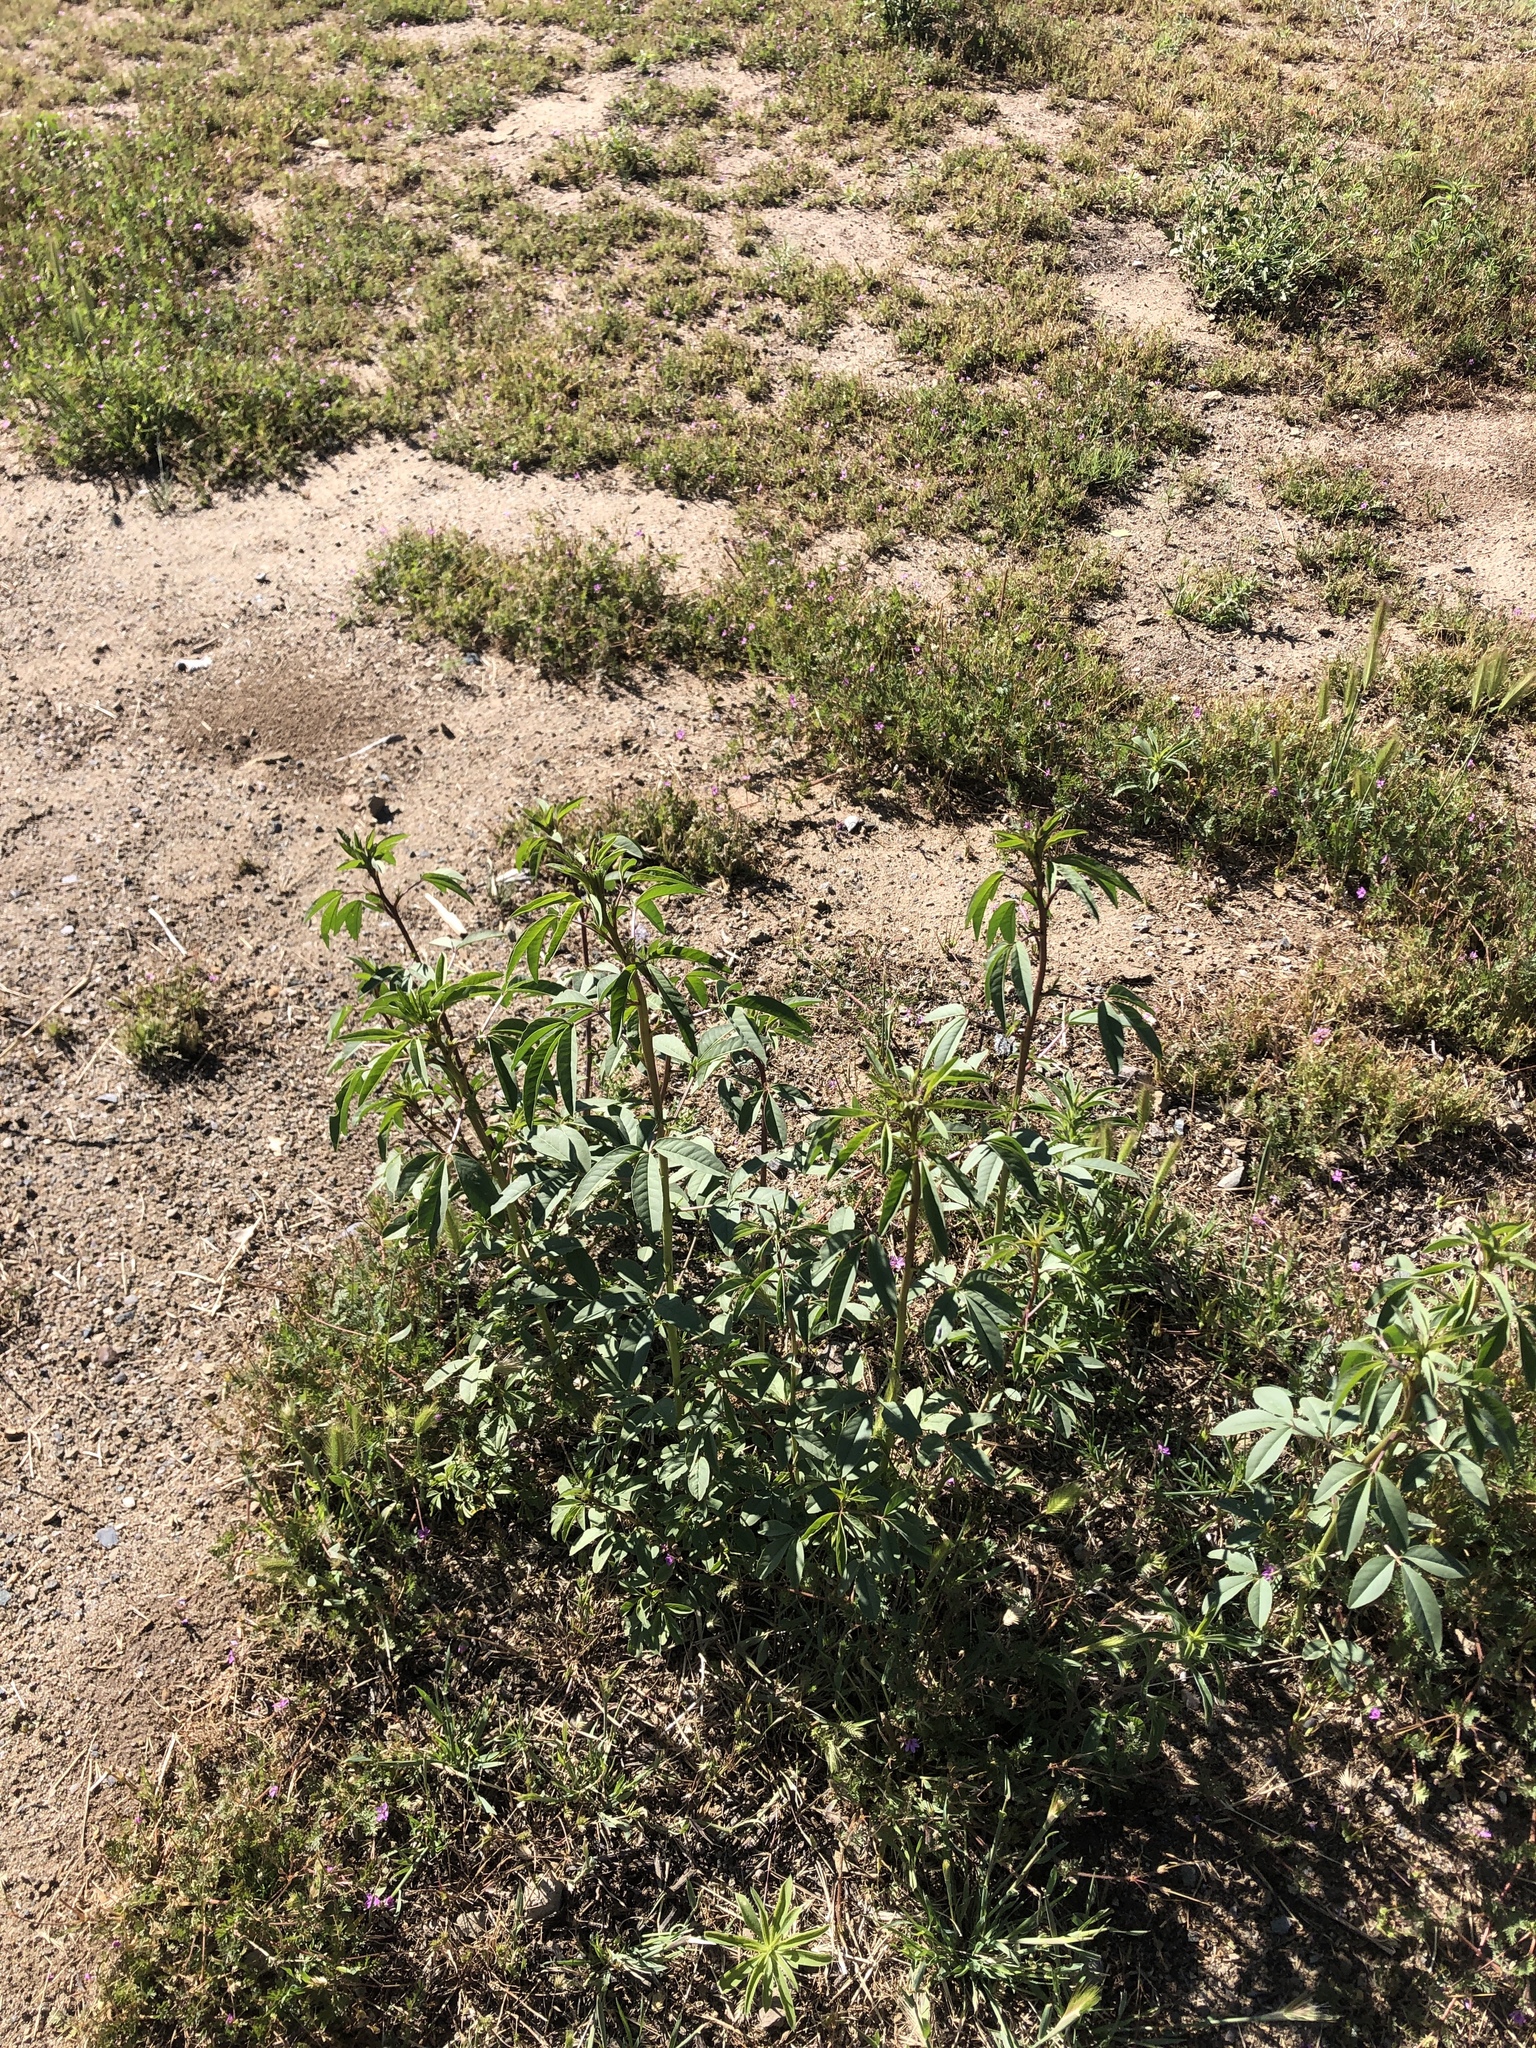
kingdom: Plantae
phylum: Tracheophyta
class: Magnoliopsida
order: Brassicales
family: Cleomaceae
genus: Cleomella
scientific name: Cleomella serrulata
